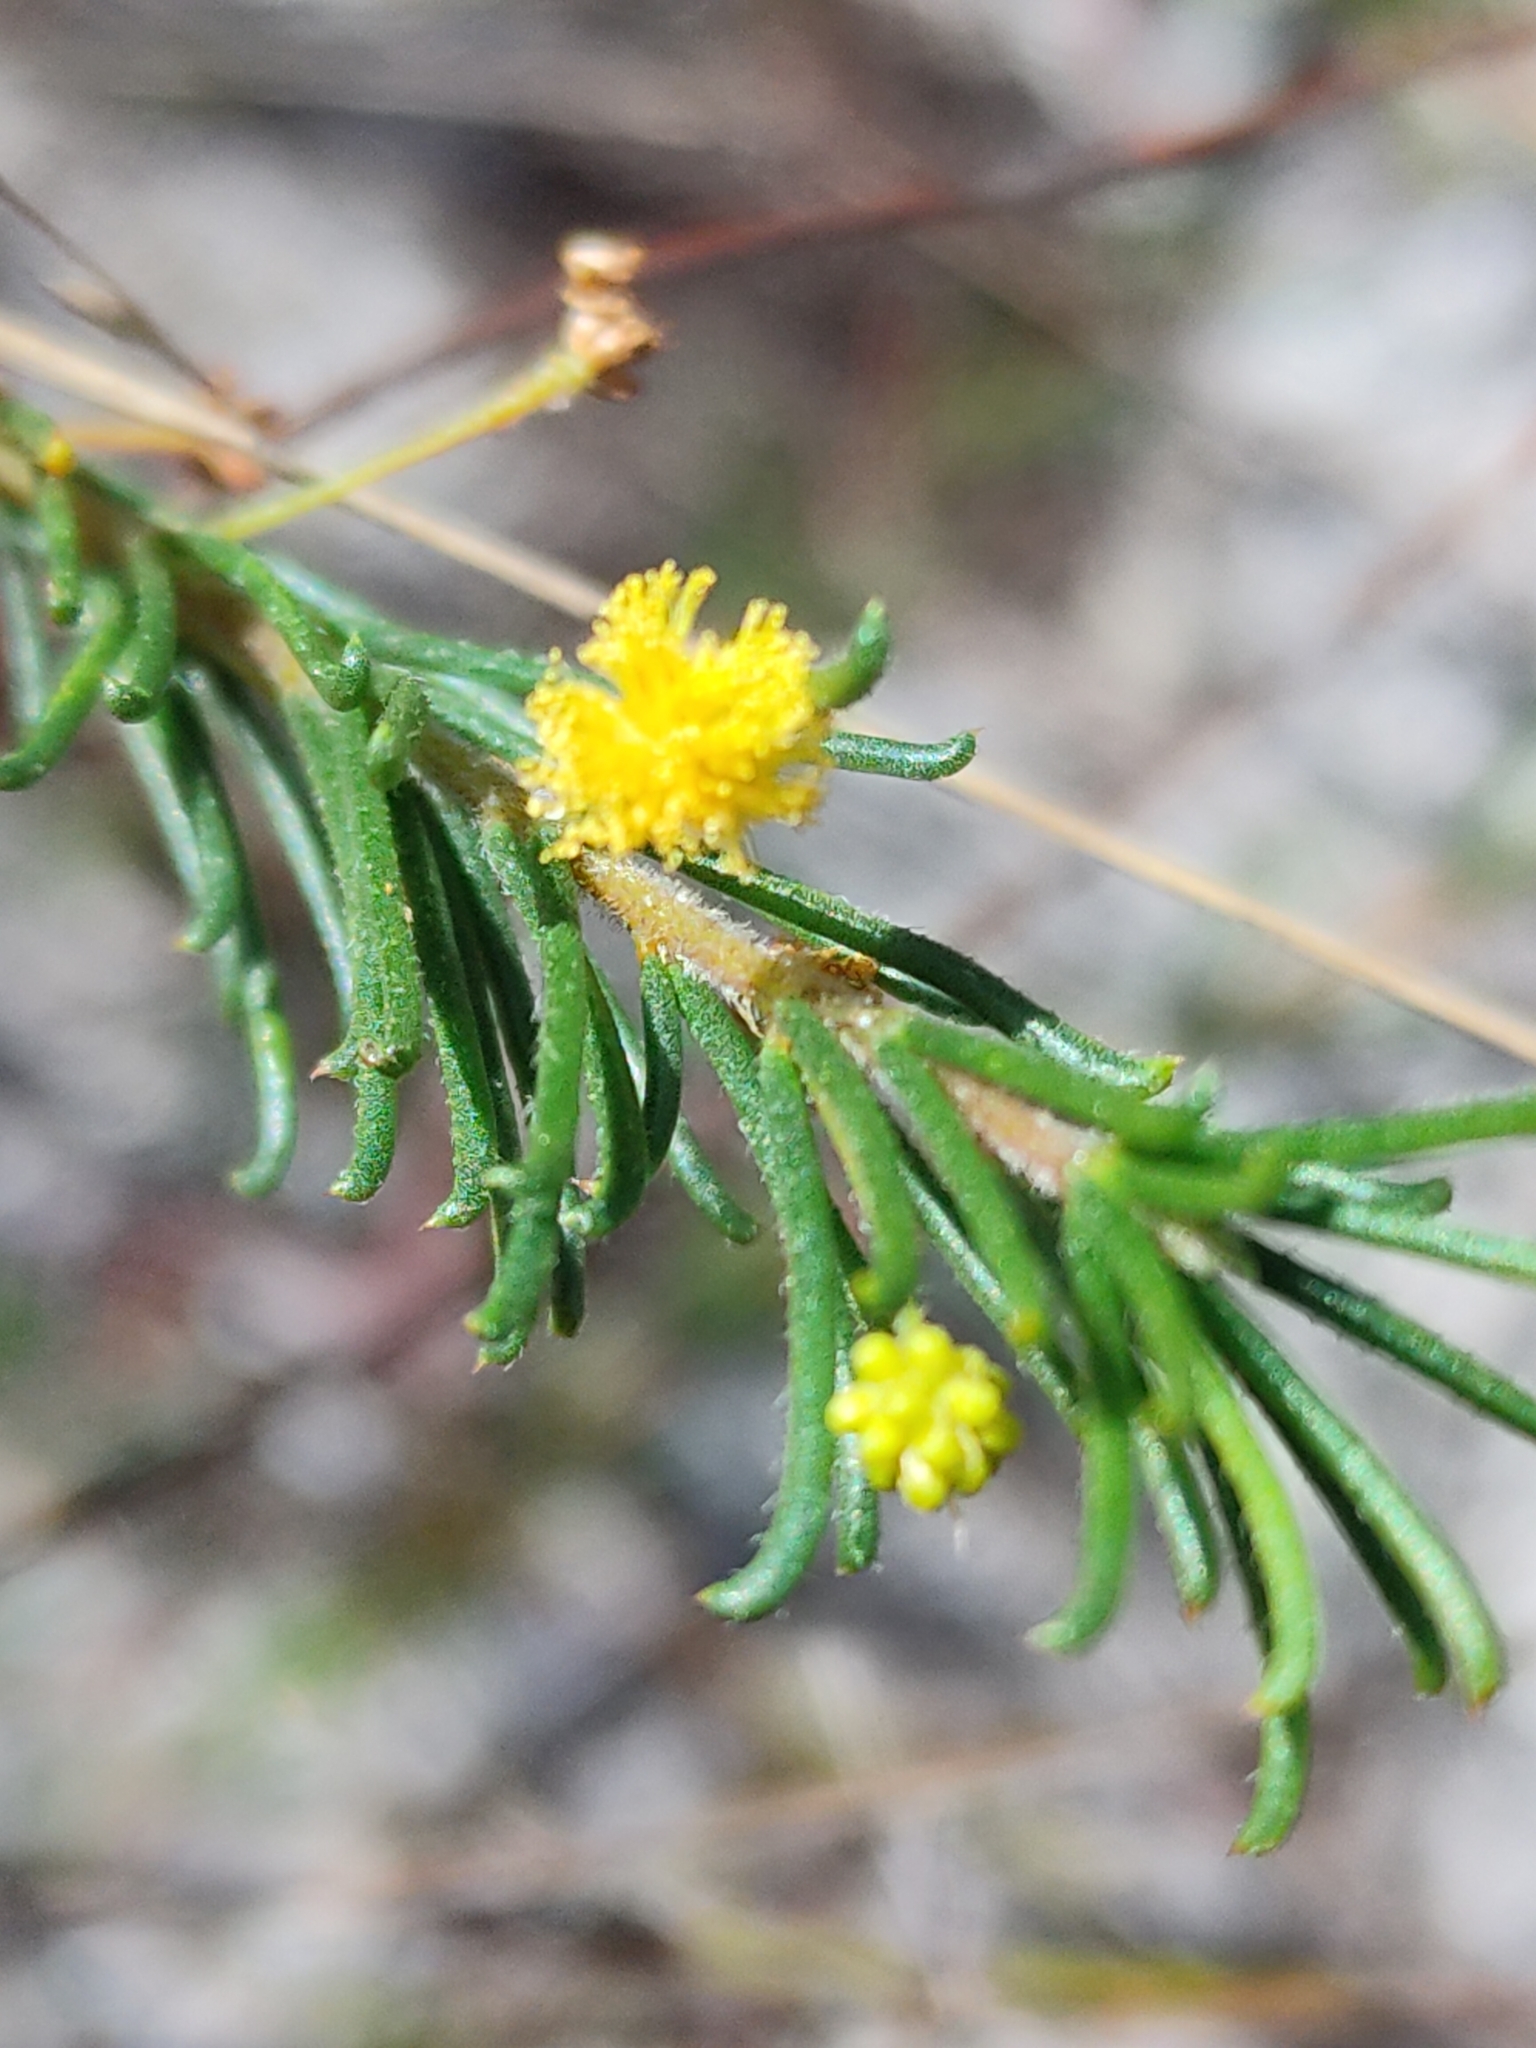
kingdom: Plantae
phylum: Tracheophyta
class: Magnoliopsida
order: Fabales
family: Fabaceae
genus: Acacia
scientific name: Acacia baueri
